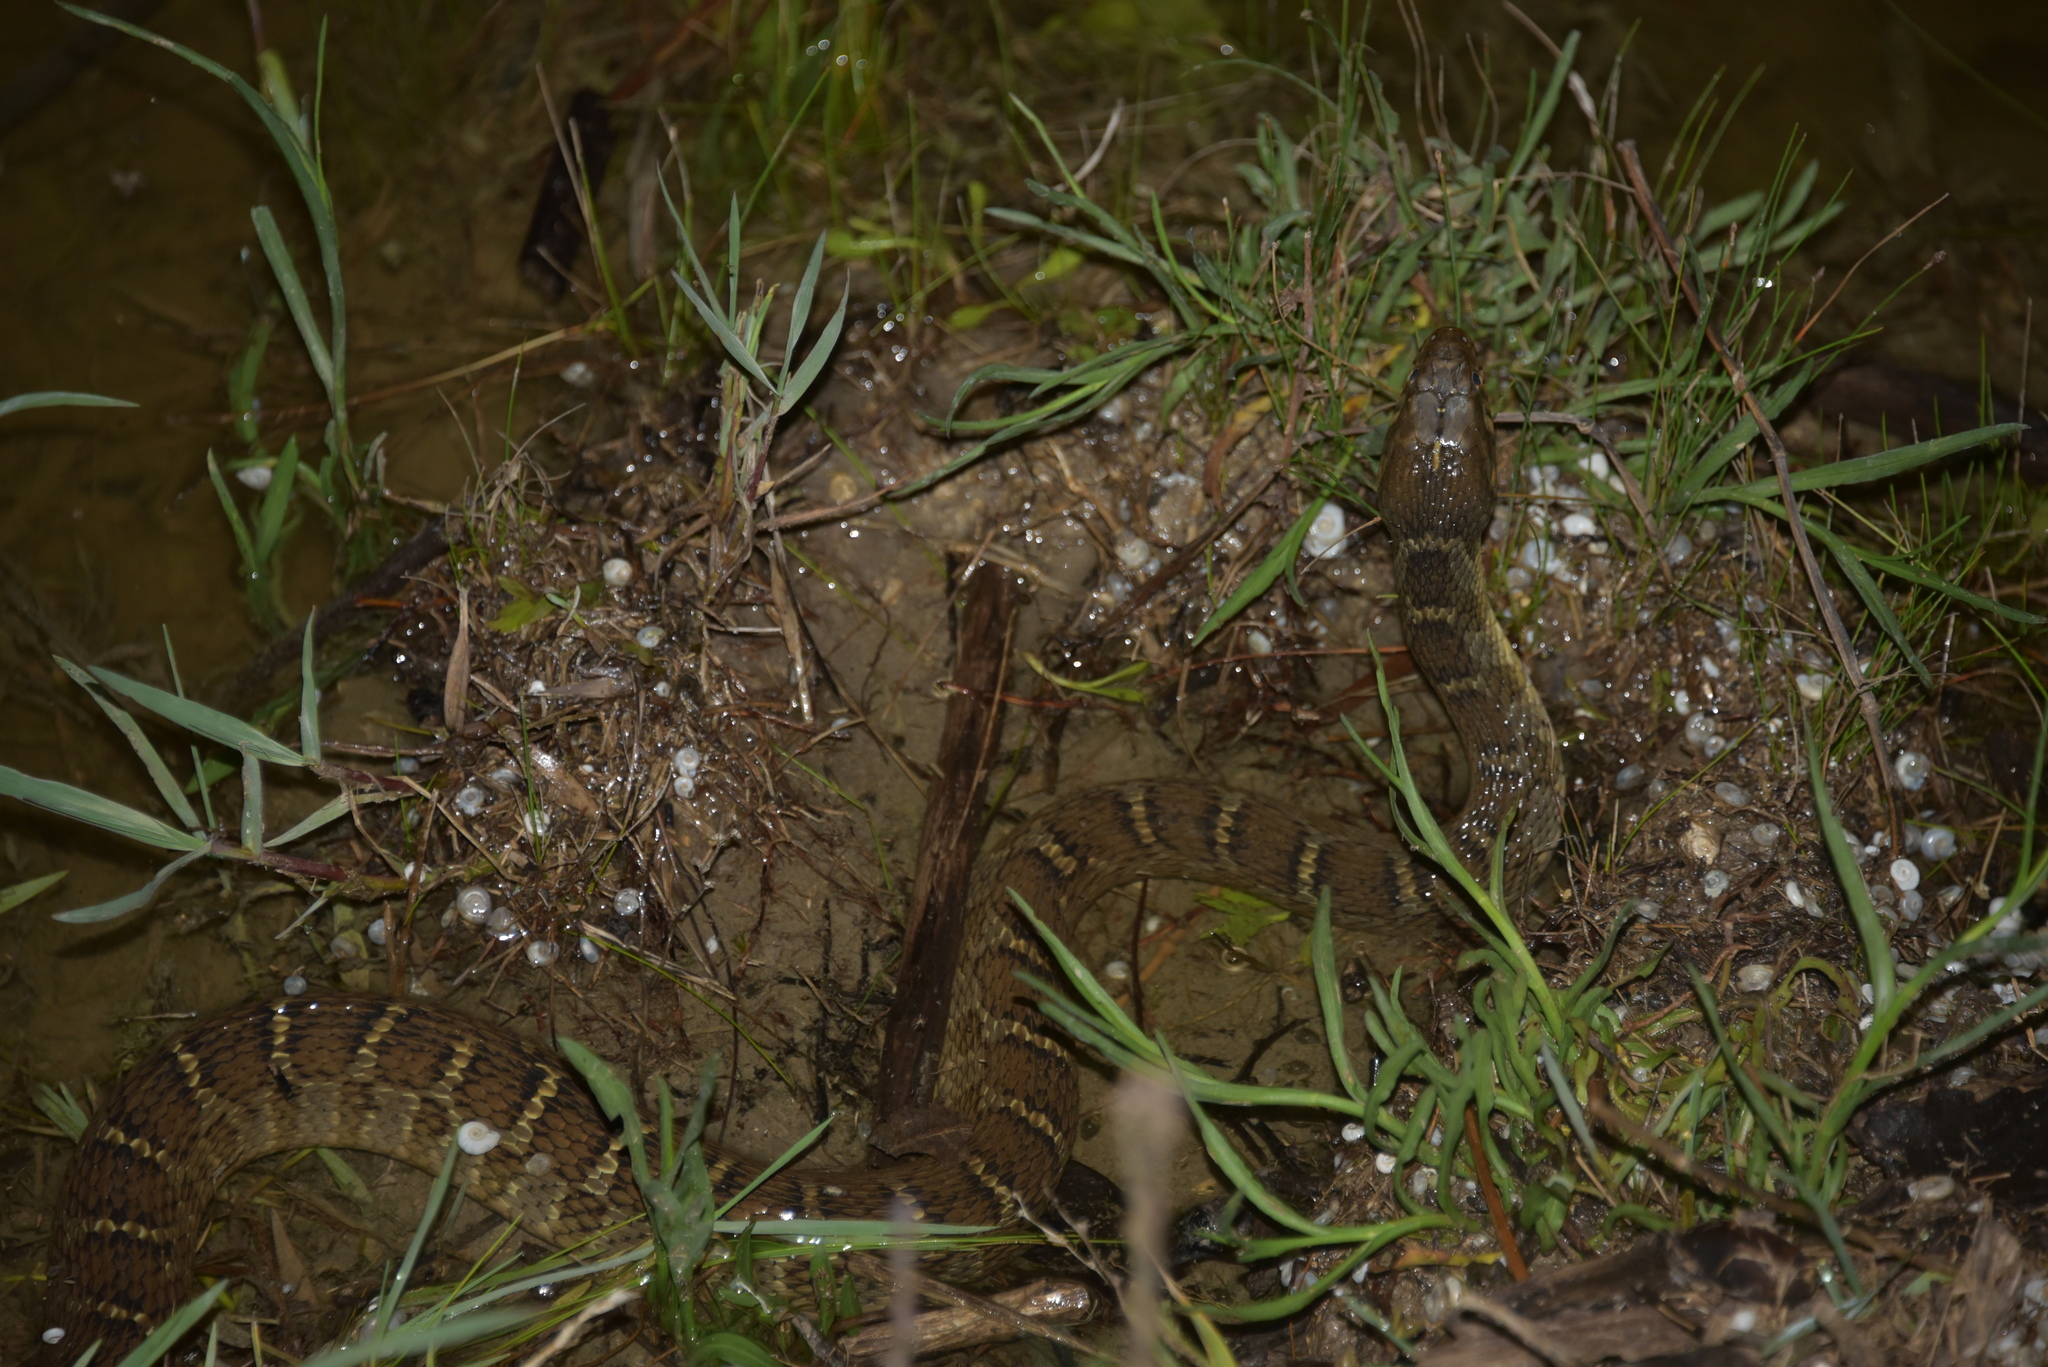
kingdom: Animalia
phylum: Chordata
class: Squamata
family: Colubridae
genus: Nerodia
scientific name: Nerodia erythrogaster
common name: Plainbelly water snake
